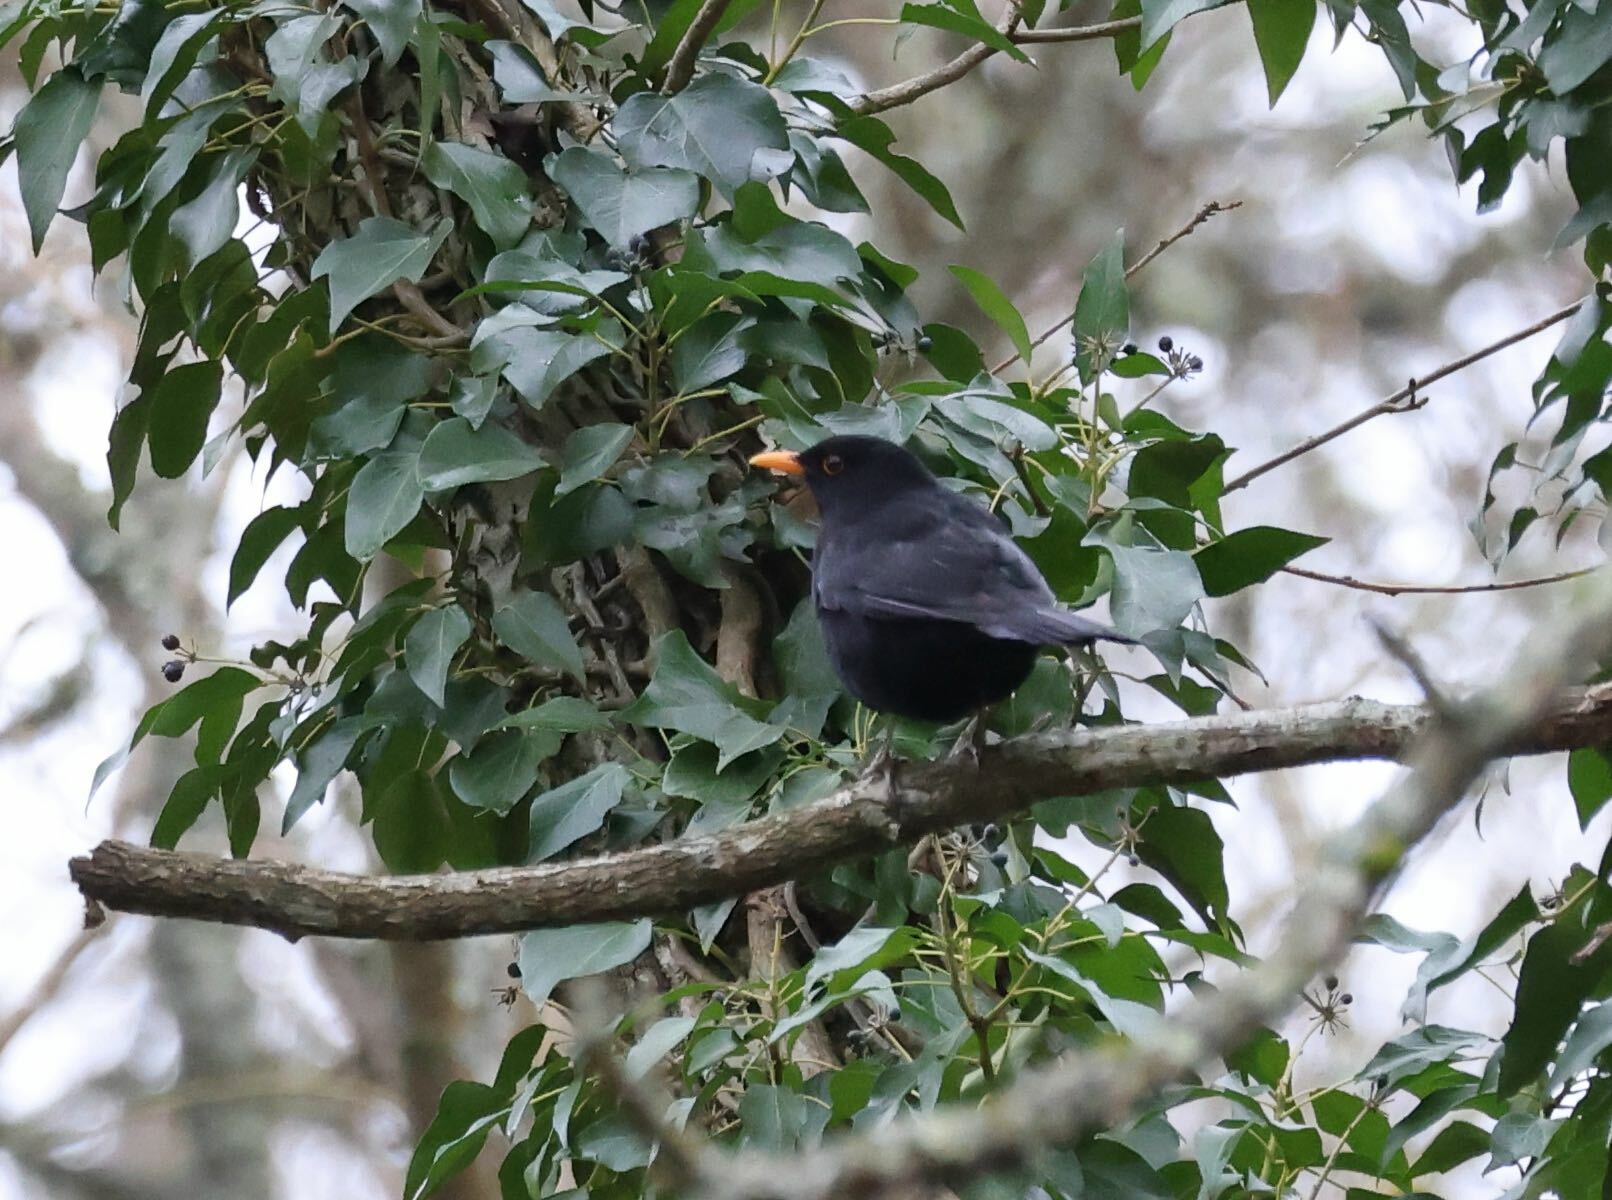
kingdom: Animalia
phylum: Chordata
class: Aves
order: Passeriformes
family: Turdidae
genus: Turdus
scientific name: Turdus merula
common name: Common blackbird
